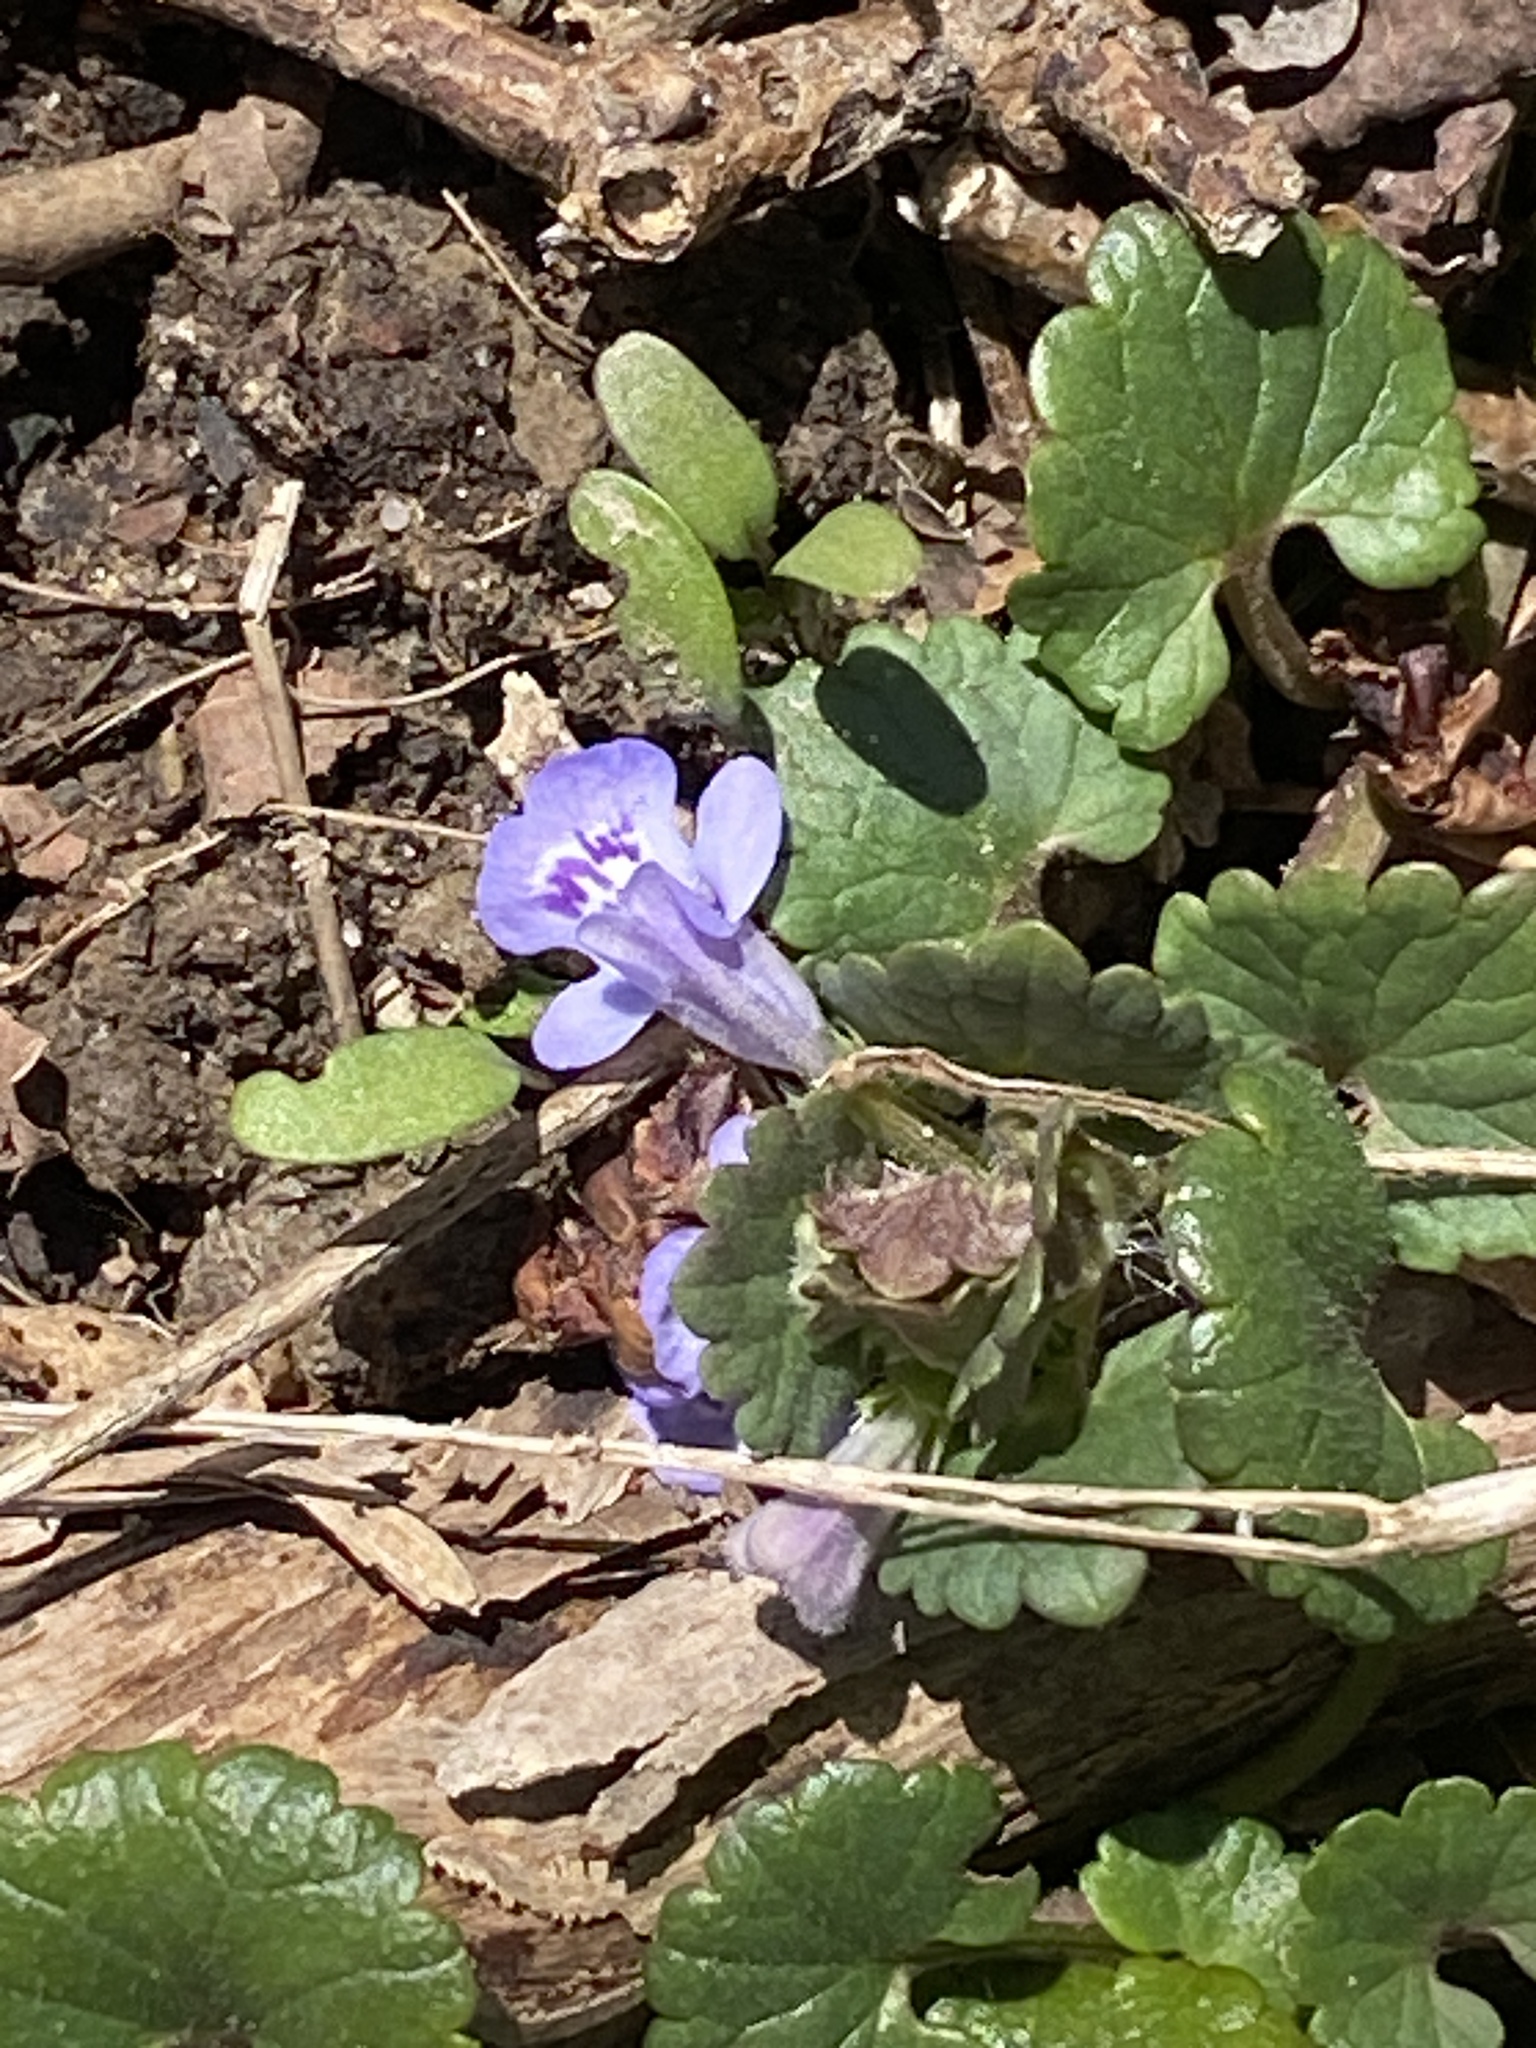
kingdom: Plantae
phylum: Tracheophyta
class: Magnoliopsida
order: Lamiales
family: Lamiaceae
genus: Glechoma
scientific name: Glechoma hederacea
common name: Ground ivy
